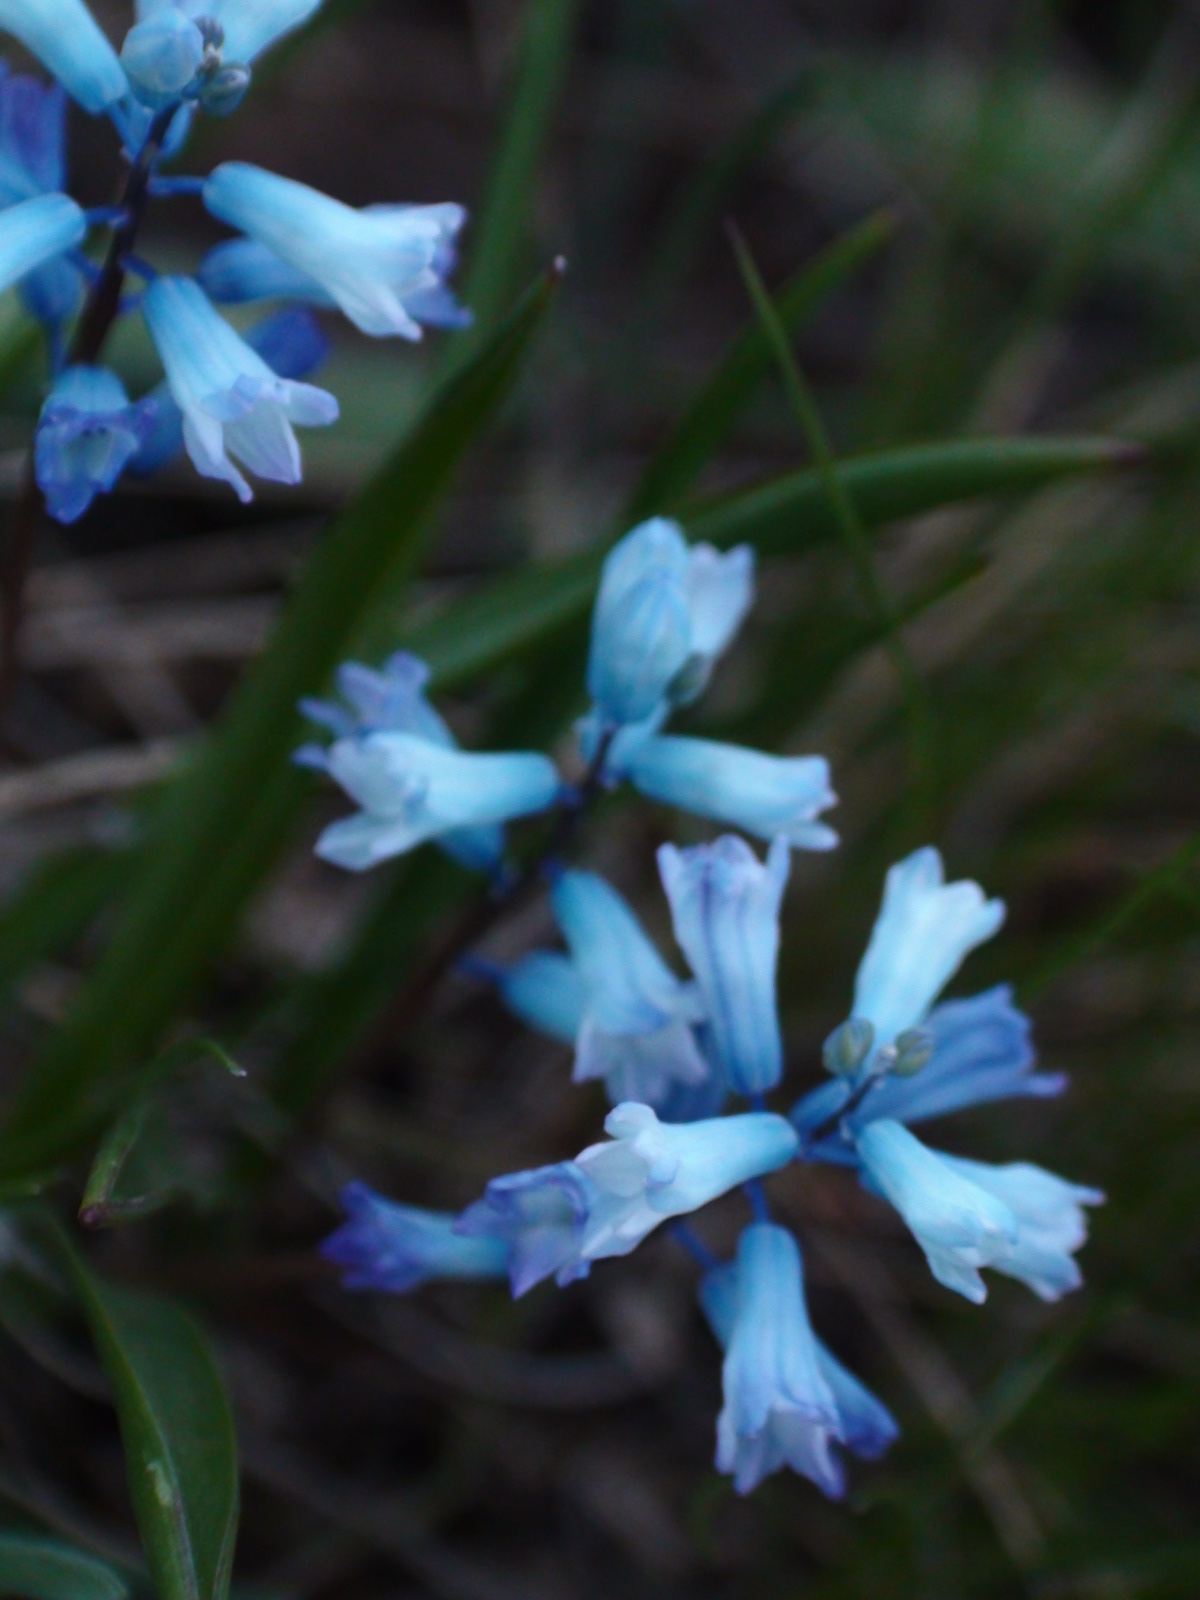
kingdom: Plantae
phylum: Tracheophyta
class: Liliopsida
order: Asparagales
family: Asparagaceae
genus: Hyacinthella
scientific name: Hyacinthella pallasiana
